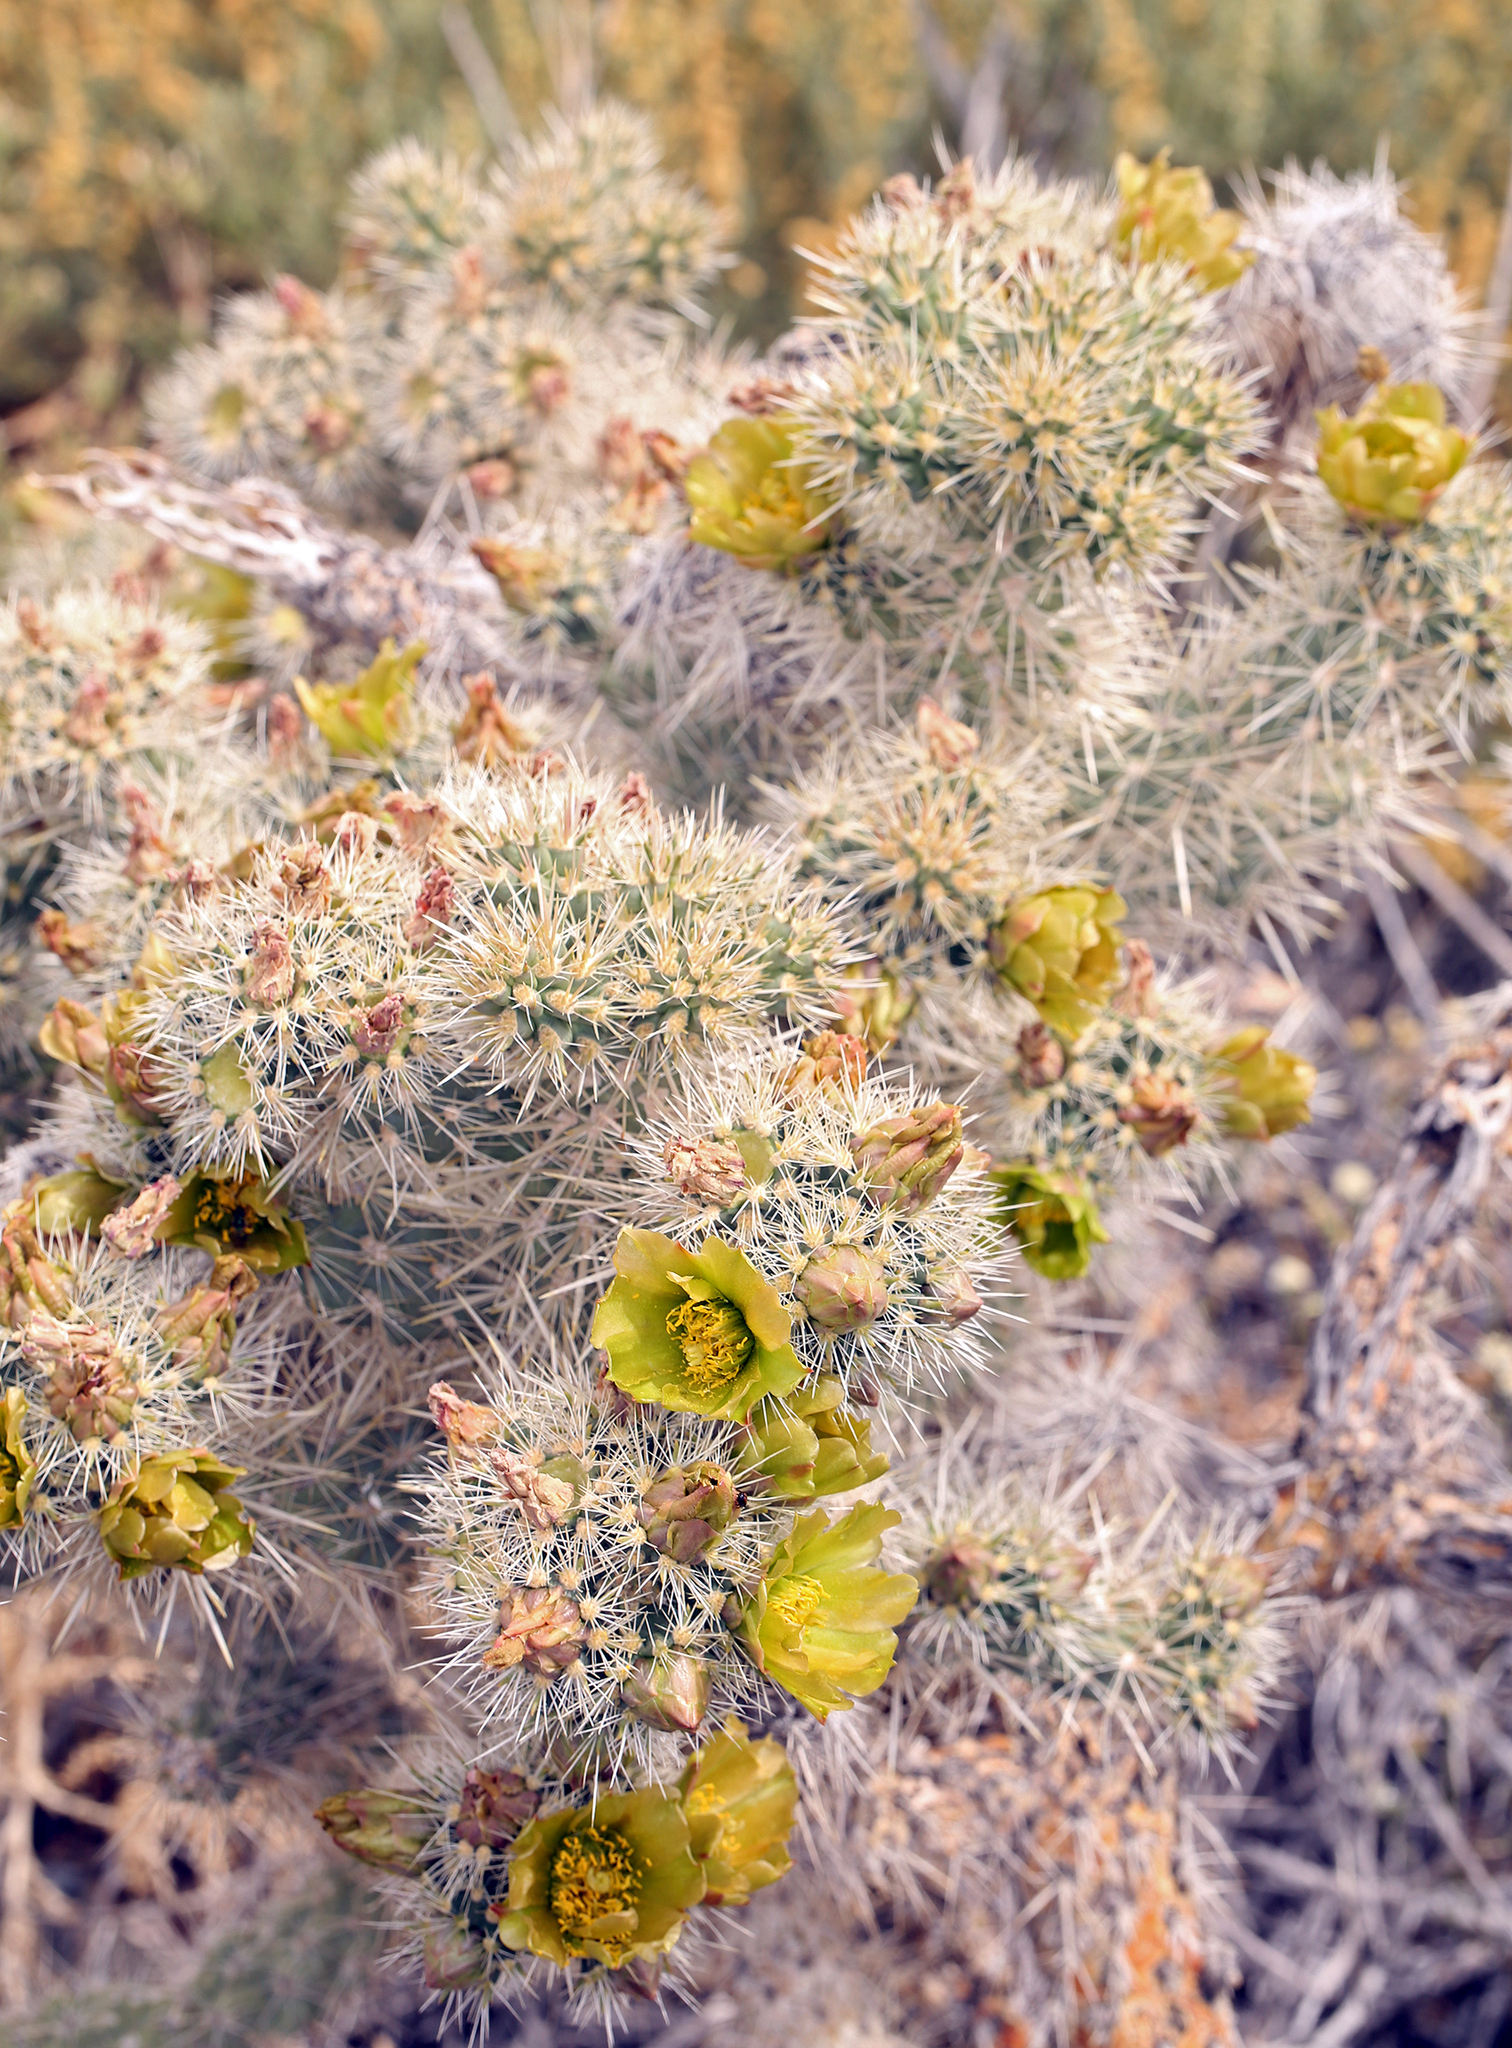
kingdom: Plantae
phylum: Tracheophyta
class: Magnoliopsida
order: Caryophyllales
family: Cactaceae
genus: Cylindropuntia
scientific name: Cylindropuntia echinocarpa
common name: Ground cholla
